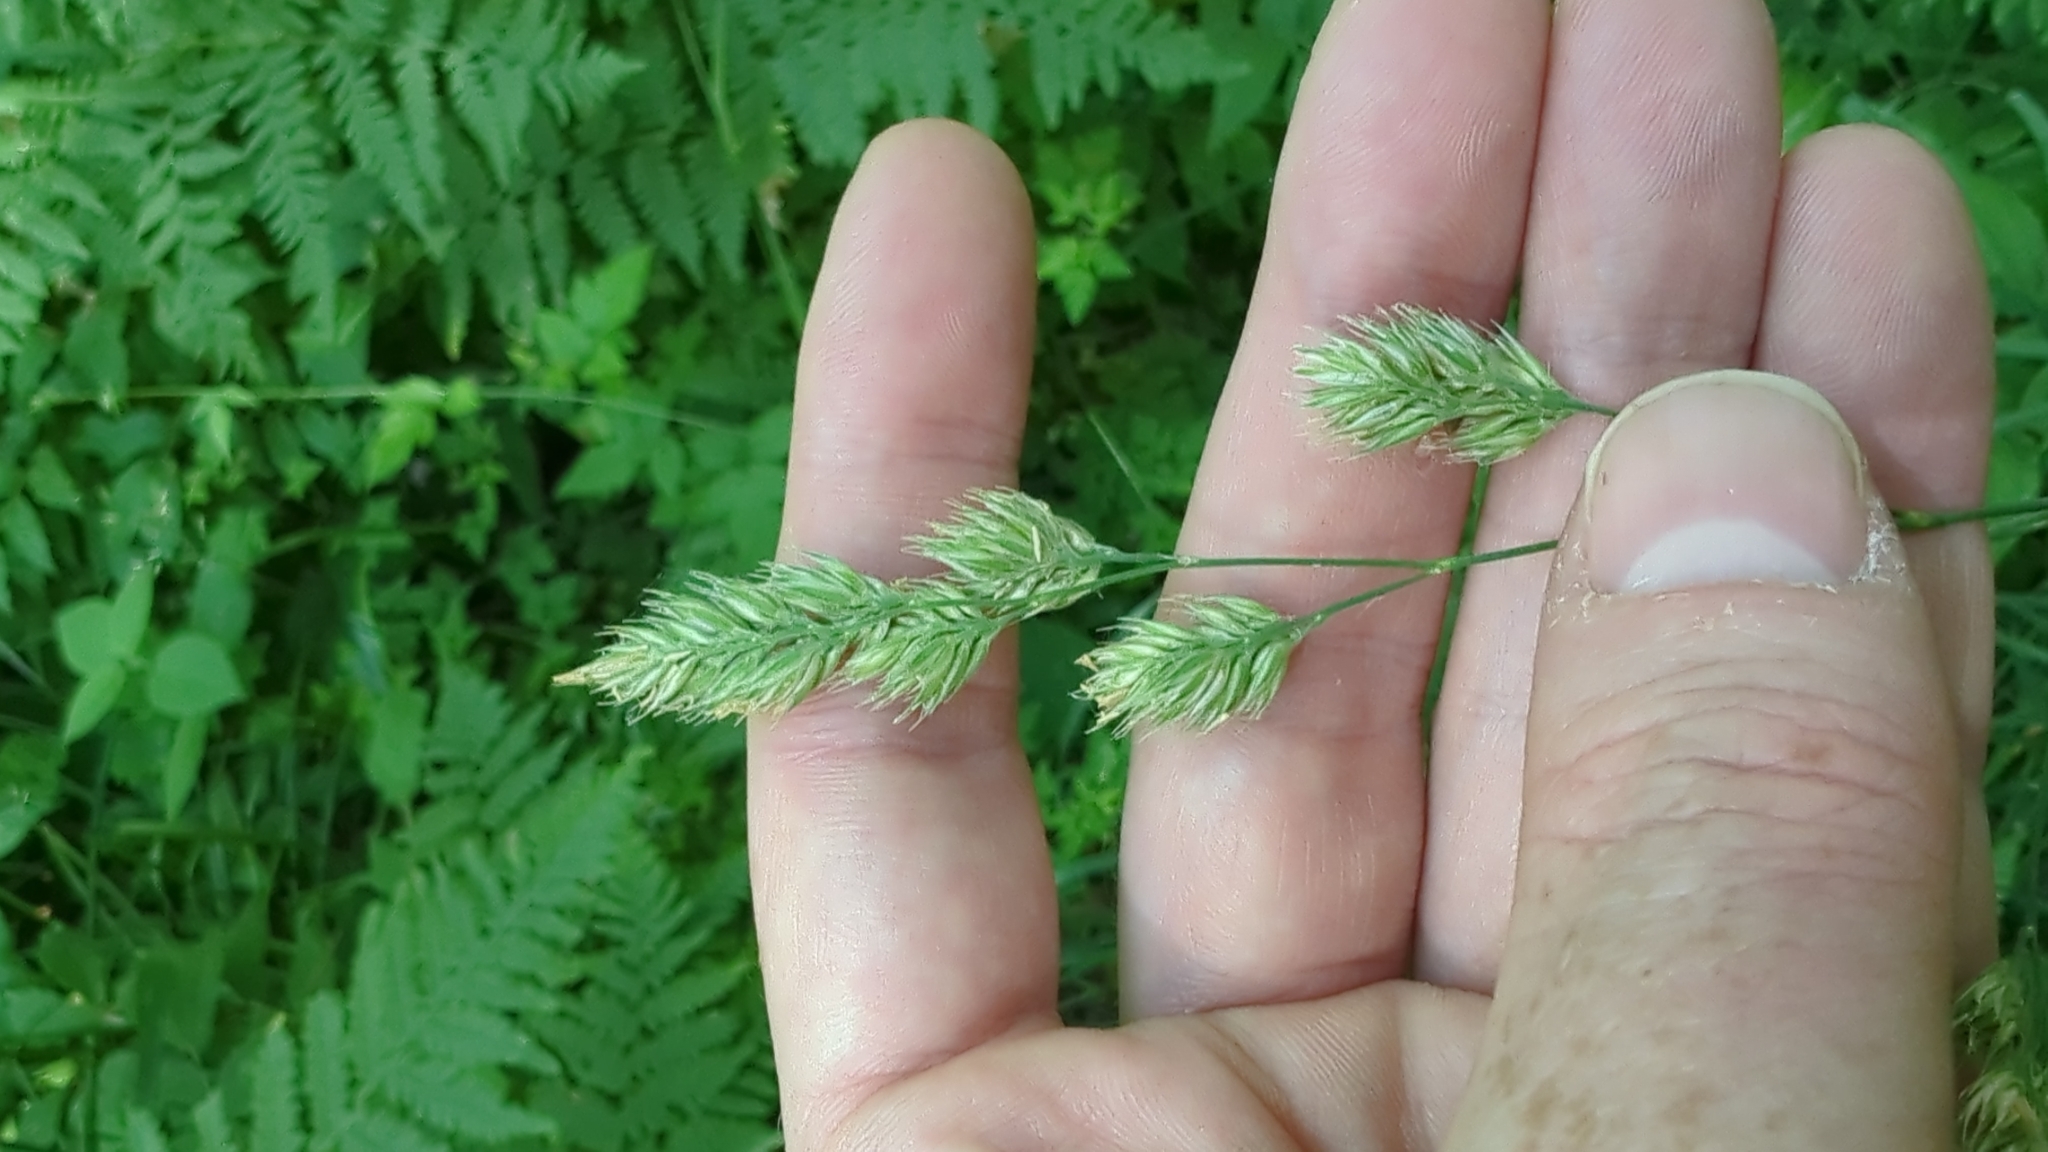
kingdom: Plantae
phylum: Tracheophyta
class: Liliopsida
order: Poales
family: Poaceae
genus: Dactylis
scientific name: Dactylis glomerata
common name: Orchardgrass
